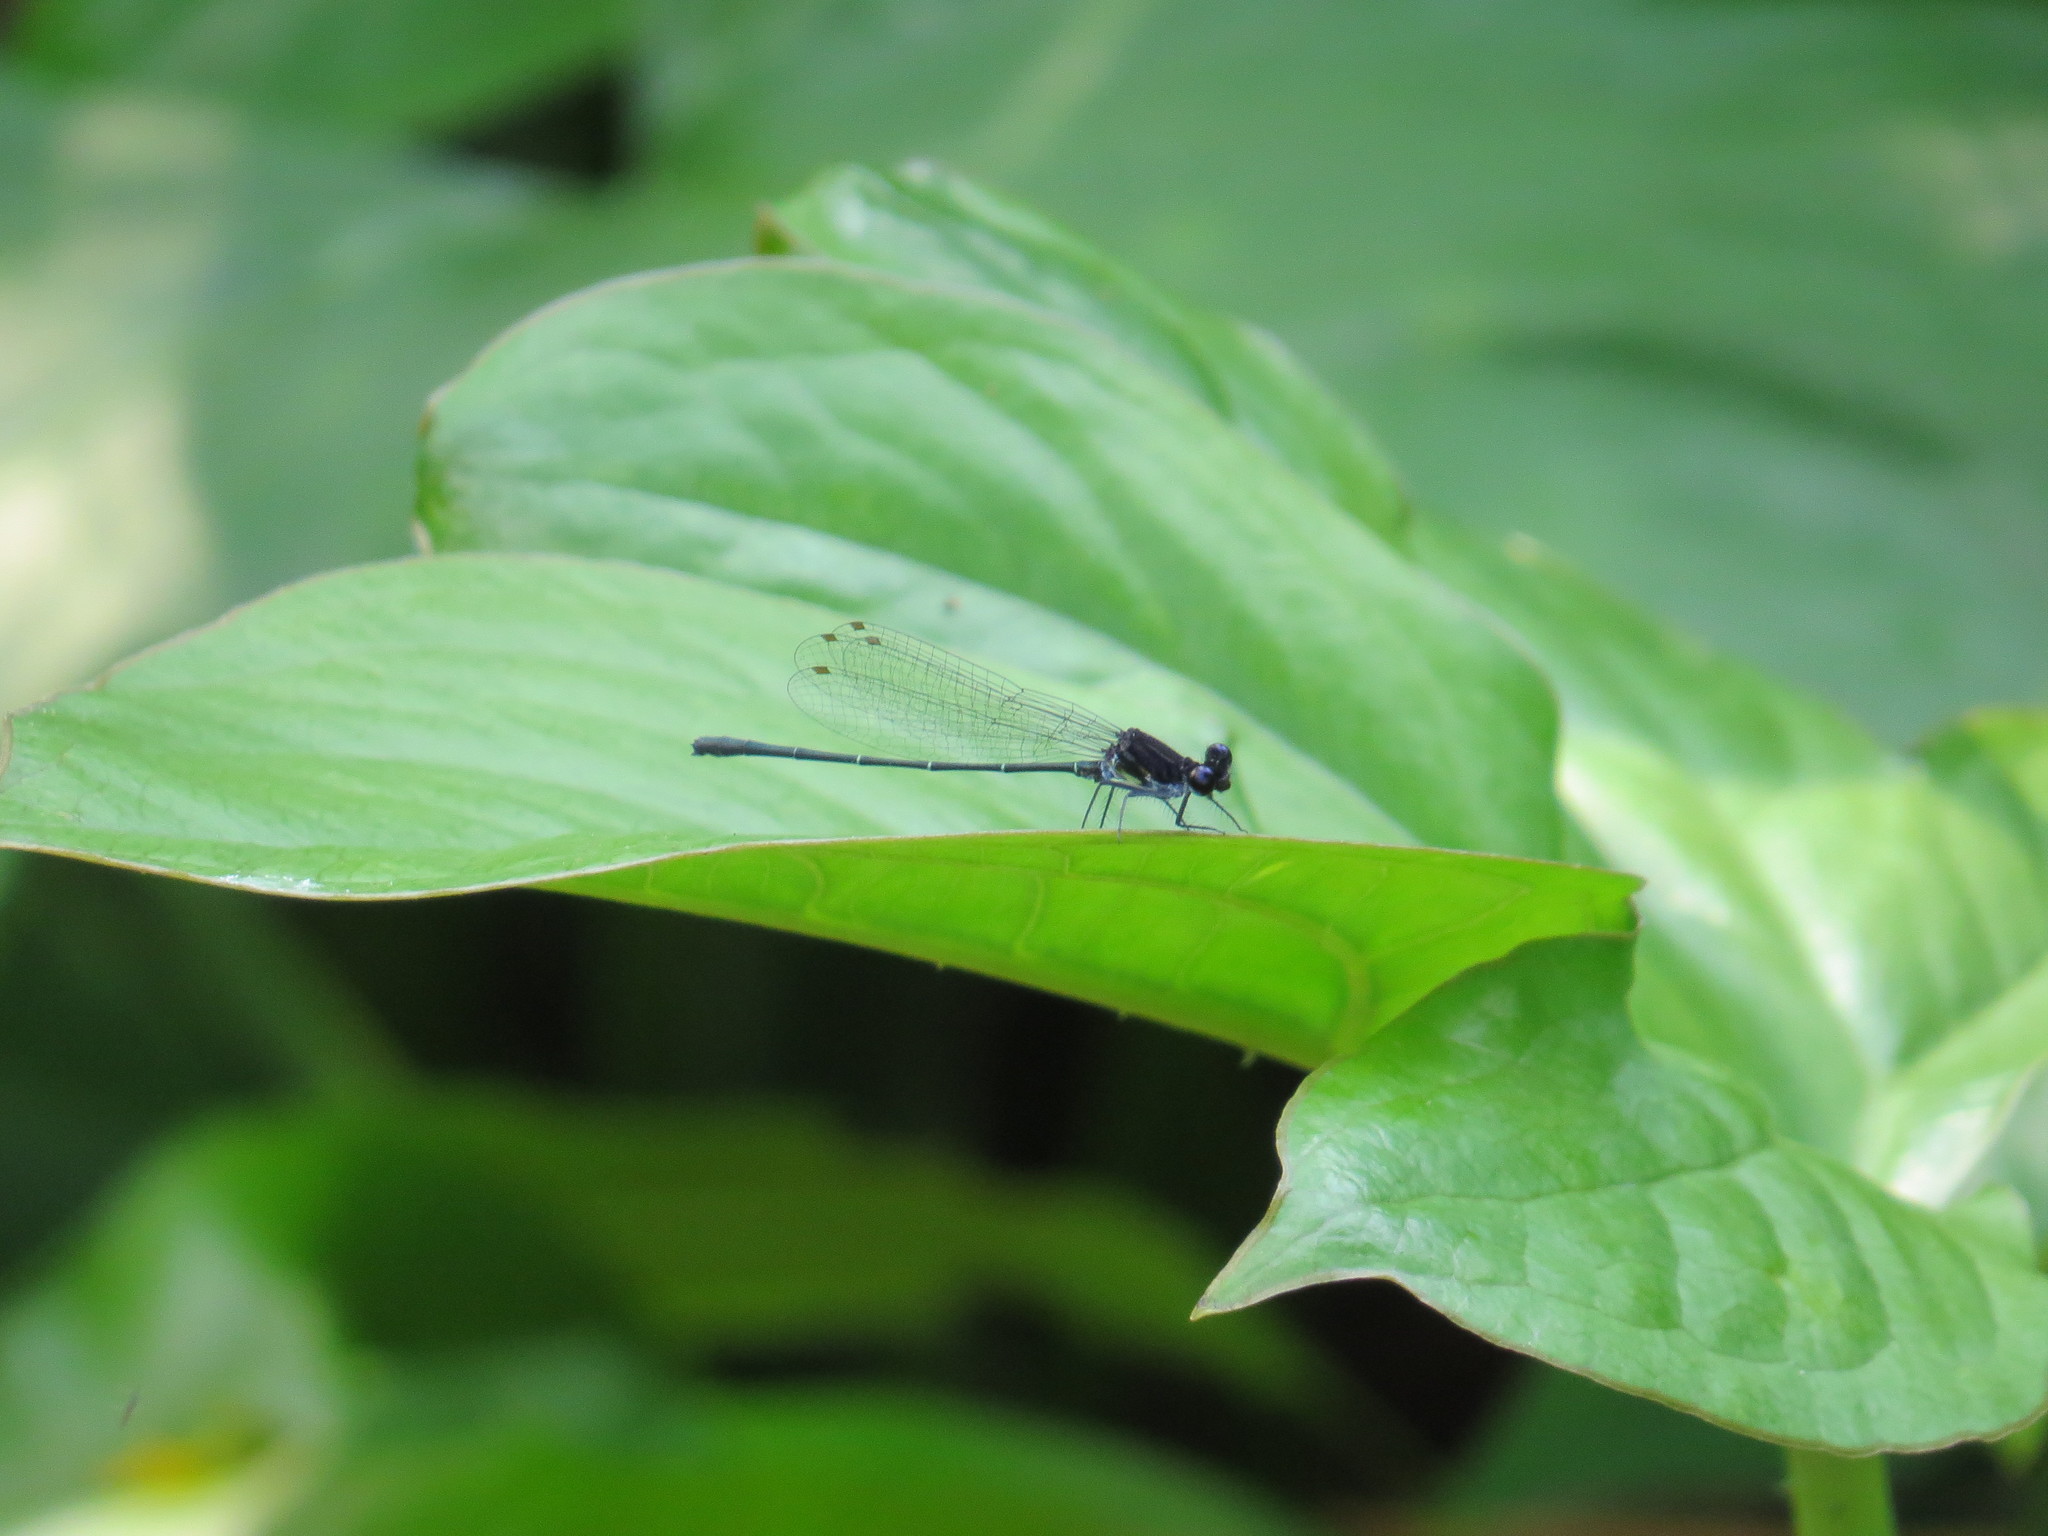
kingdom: Animalia
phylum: Arthropoda
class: Insecta
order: Odonata
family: Platycnemididae
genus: Onychargia
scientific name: Onychargia atrocyana
